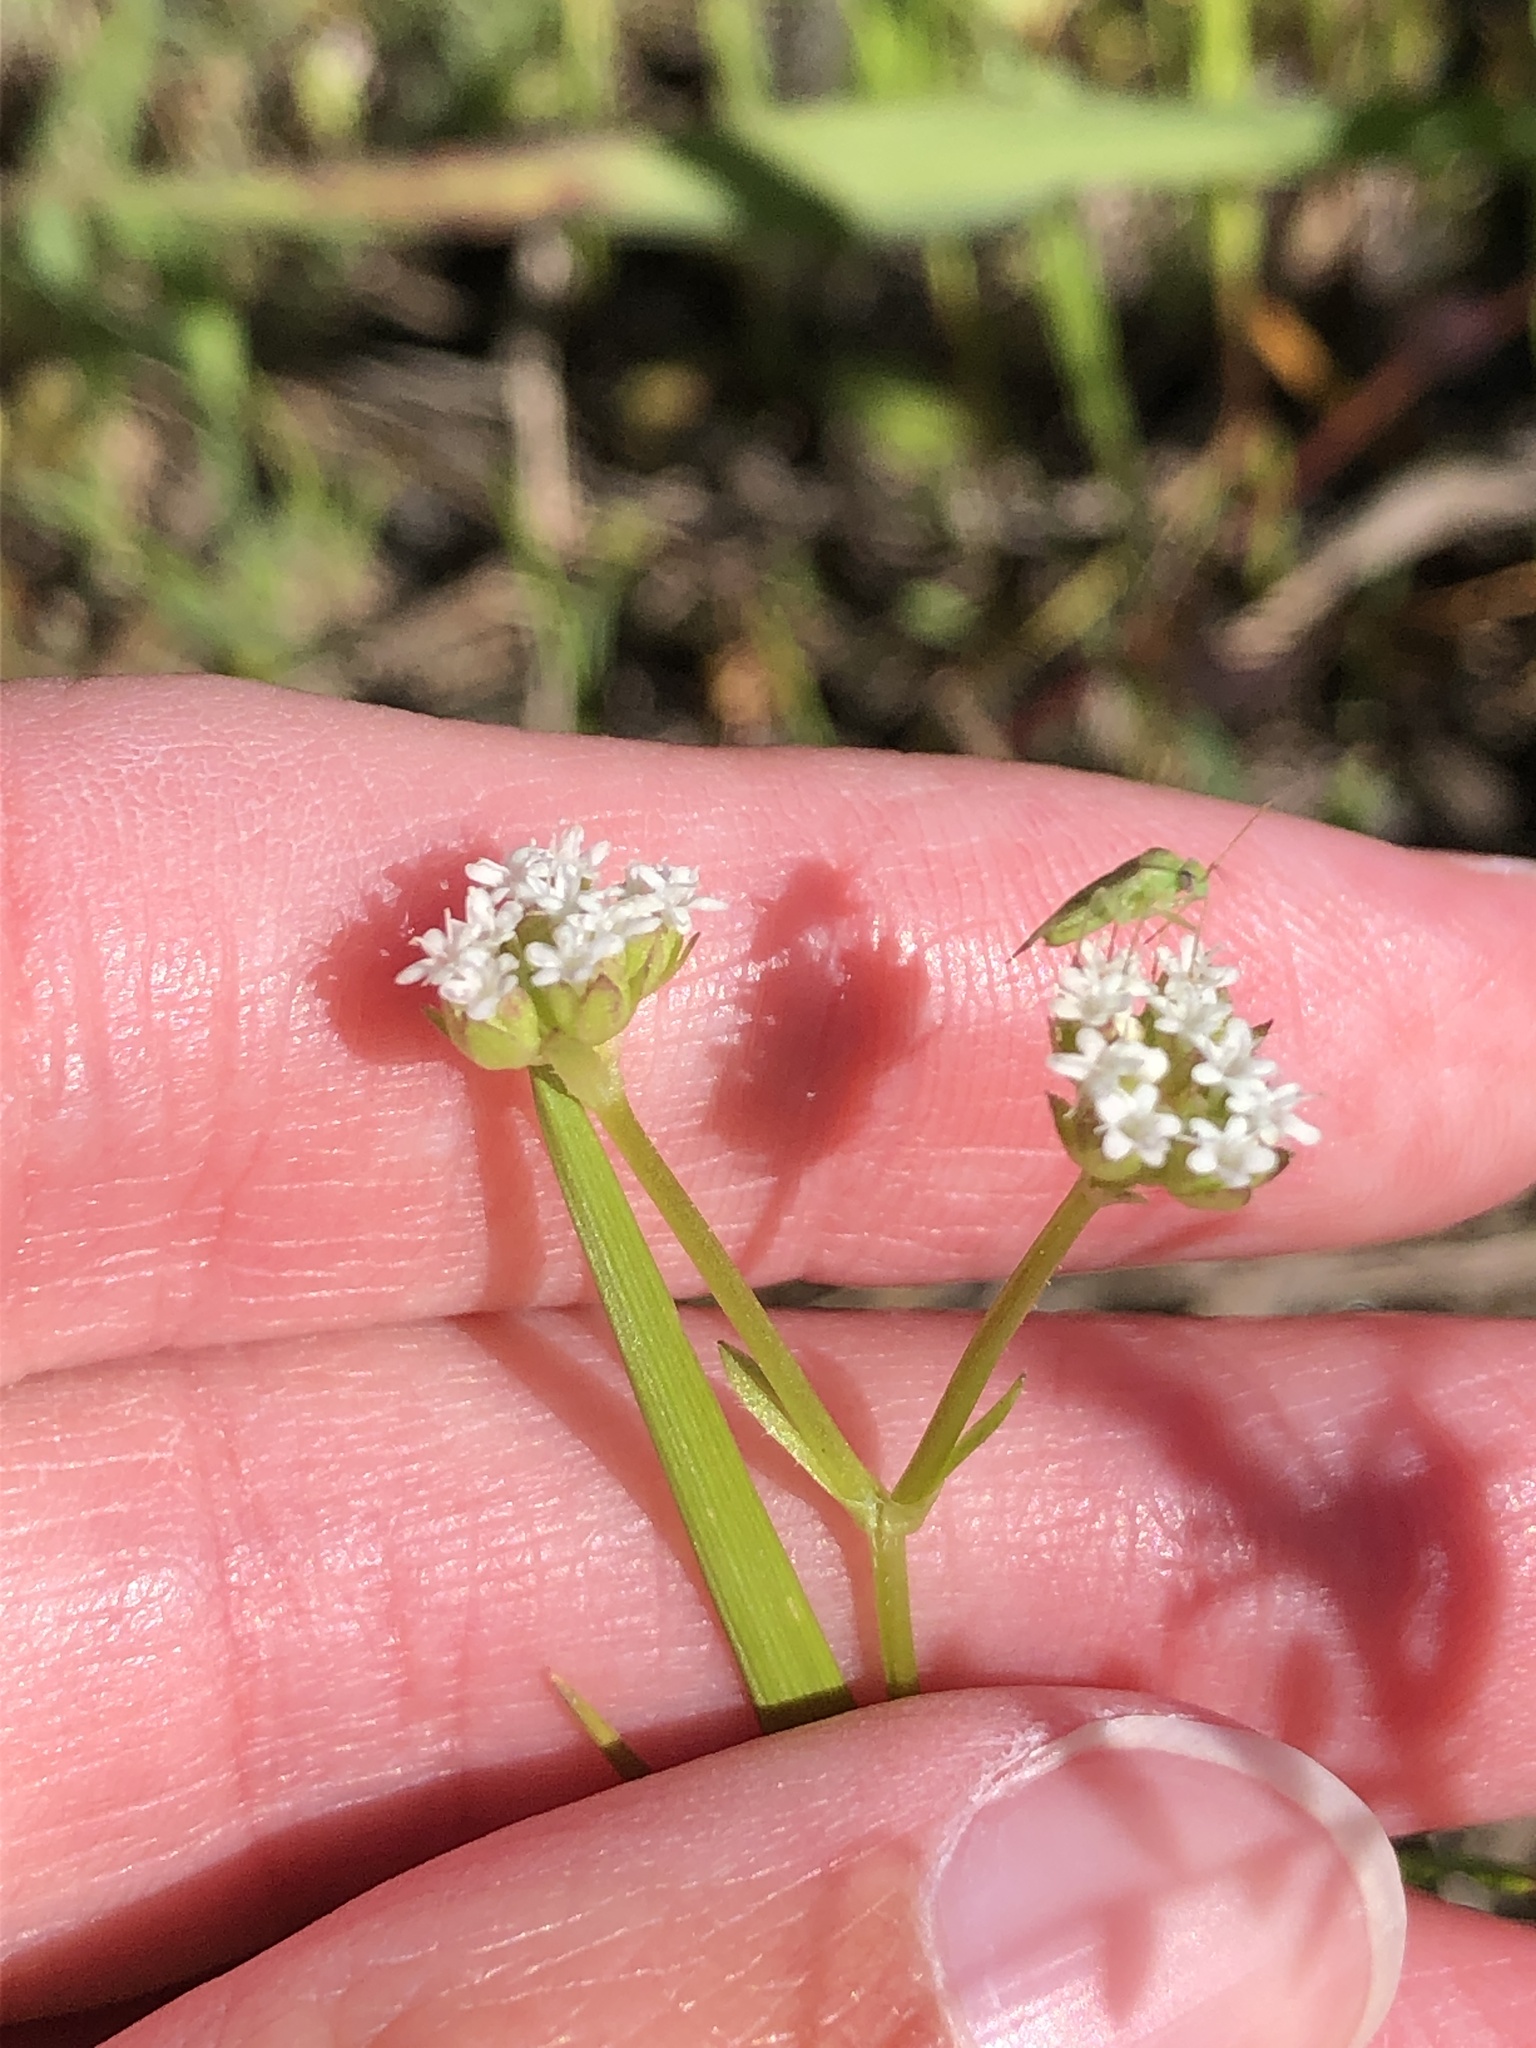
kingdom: Plantae
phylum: Tracheophyta
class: Magnoliopsida
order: Dipsacales
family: Caprifoliaceae
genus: Valerianella
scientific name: Valerianella radiata
